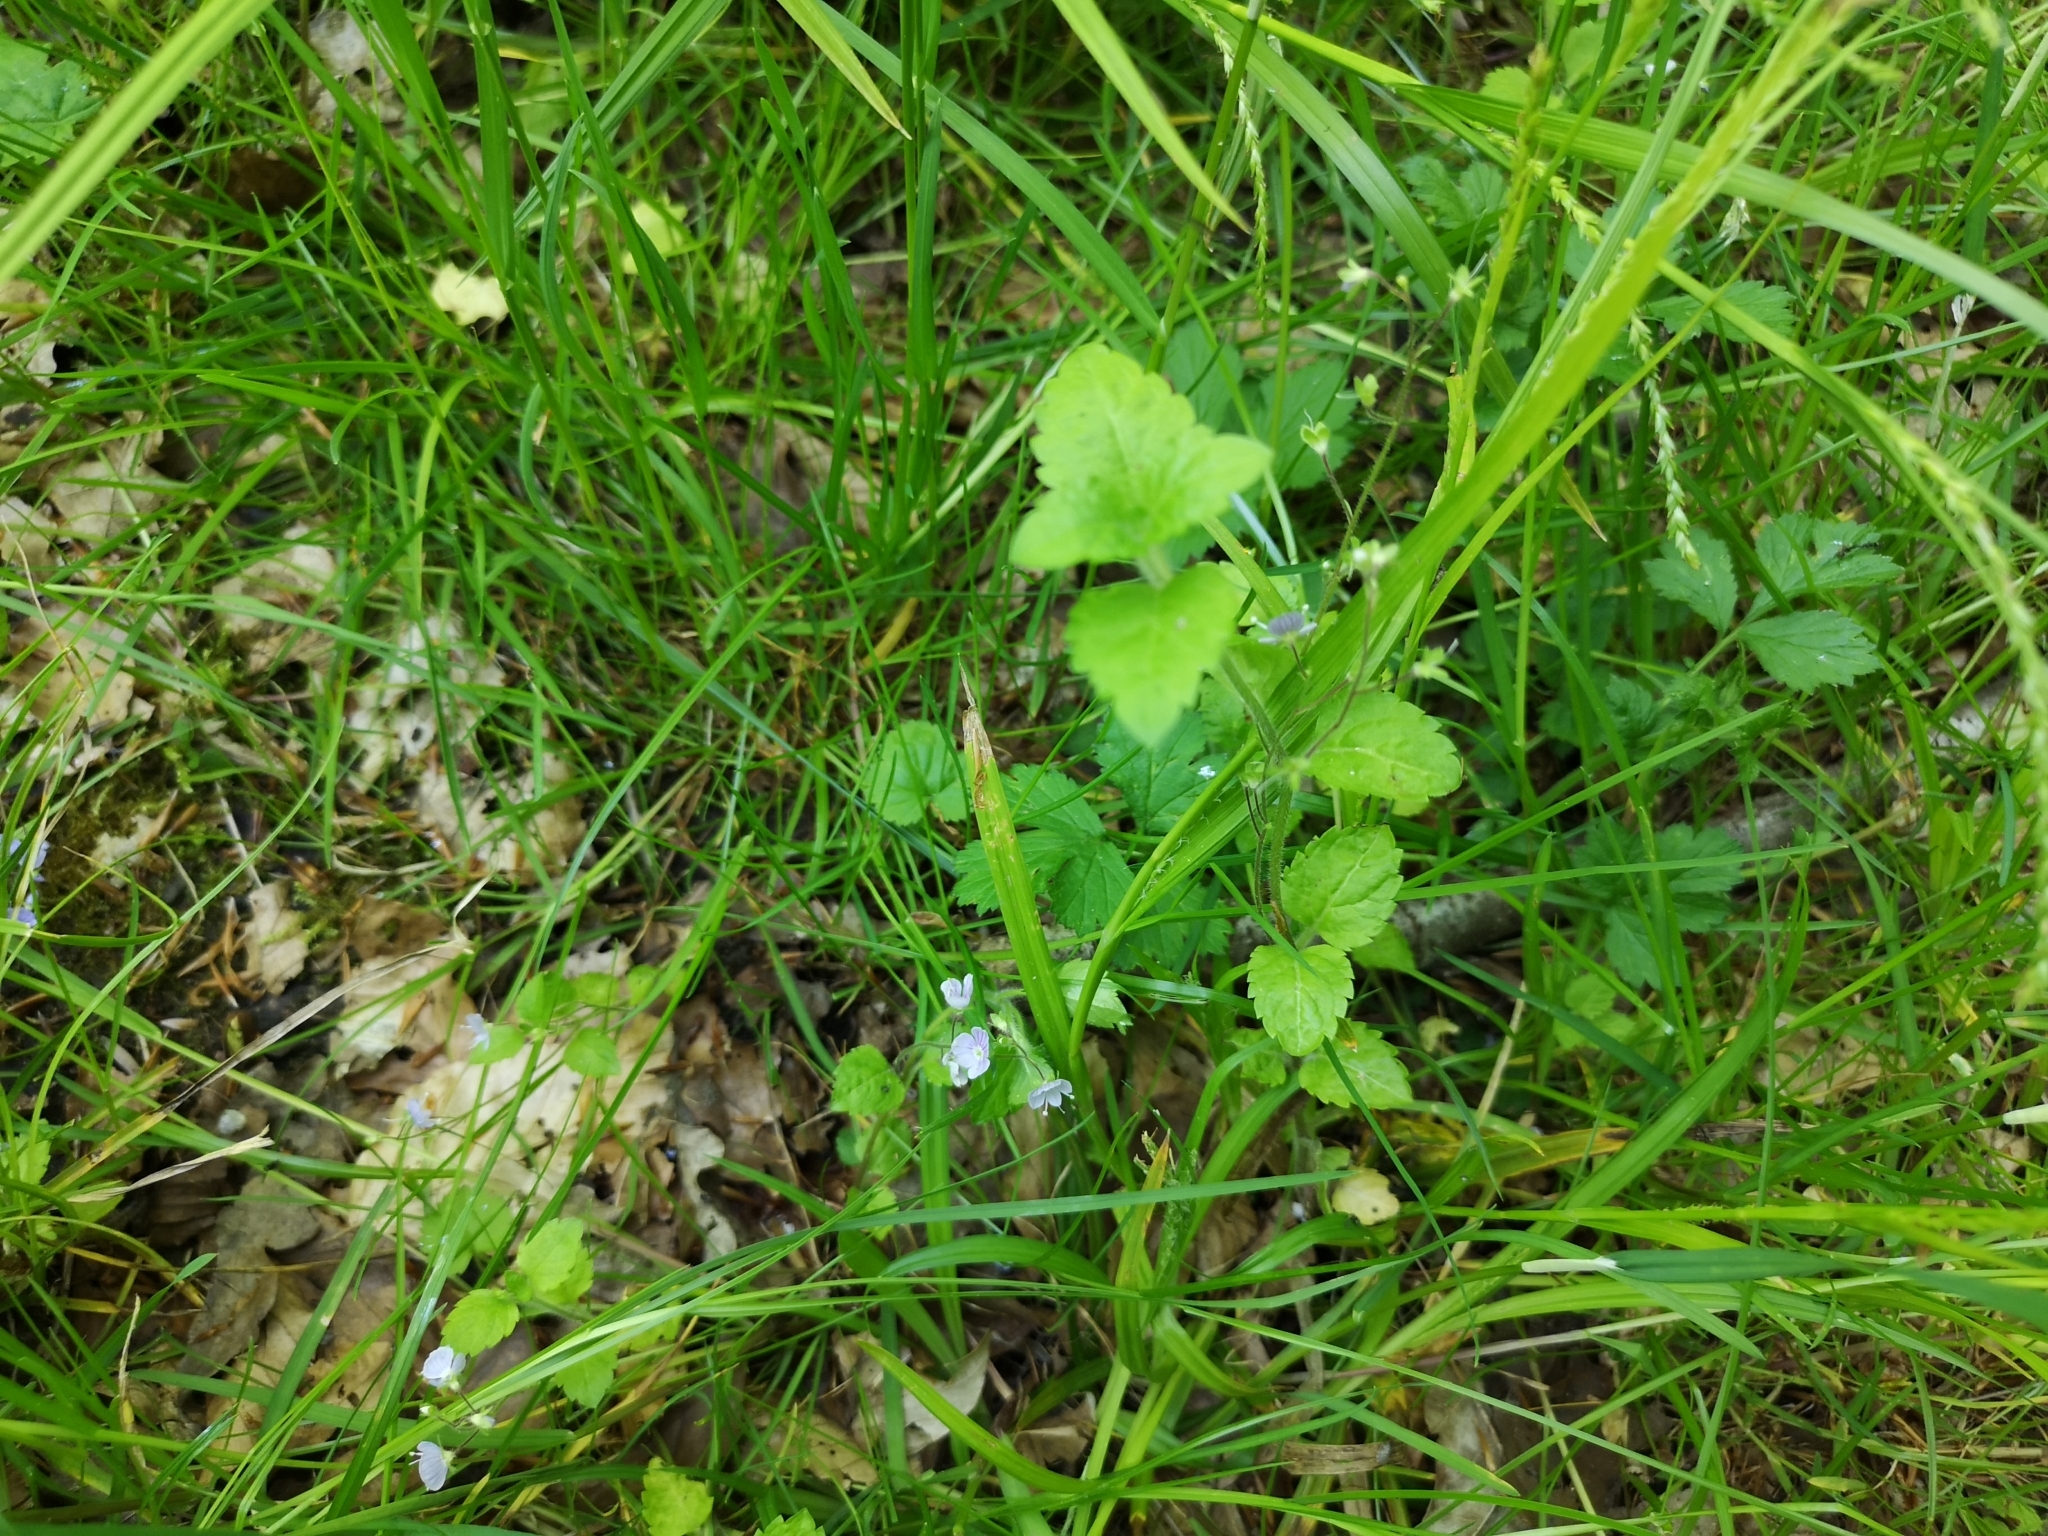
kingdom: Plantae
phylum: Tracheophyta
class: Magnoliopsida
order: Lamiales
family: Plantaginaceae
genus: Veronica
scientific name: Veronica montana
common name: Wood speedwell
